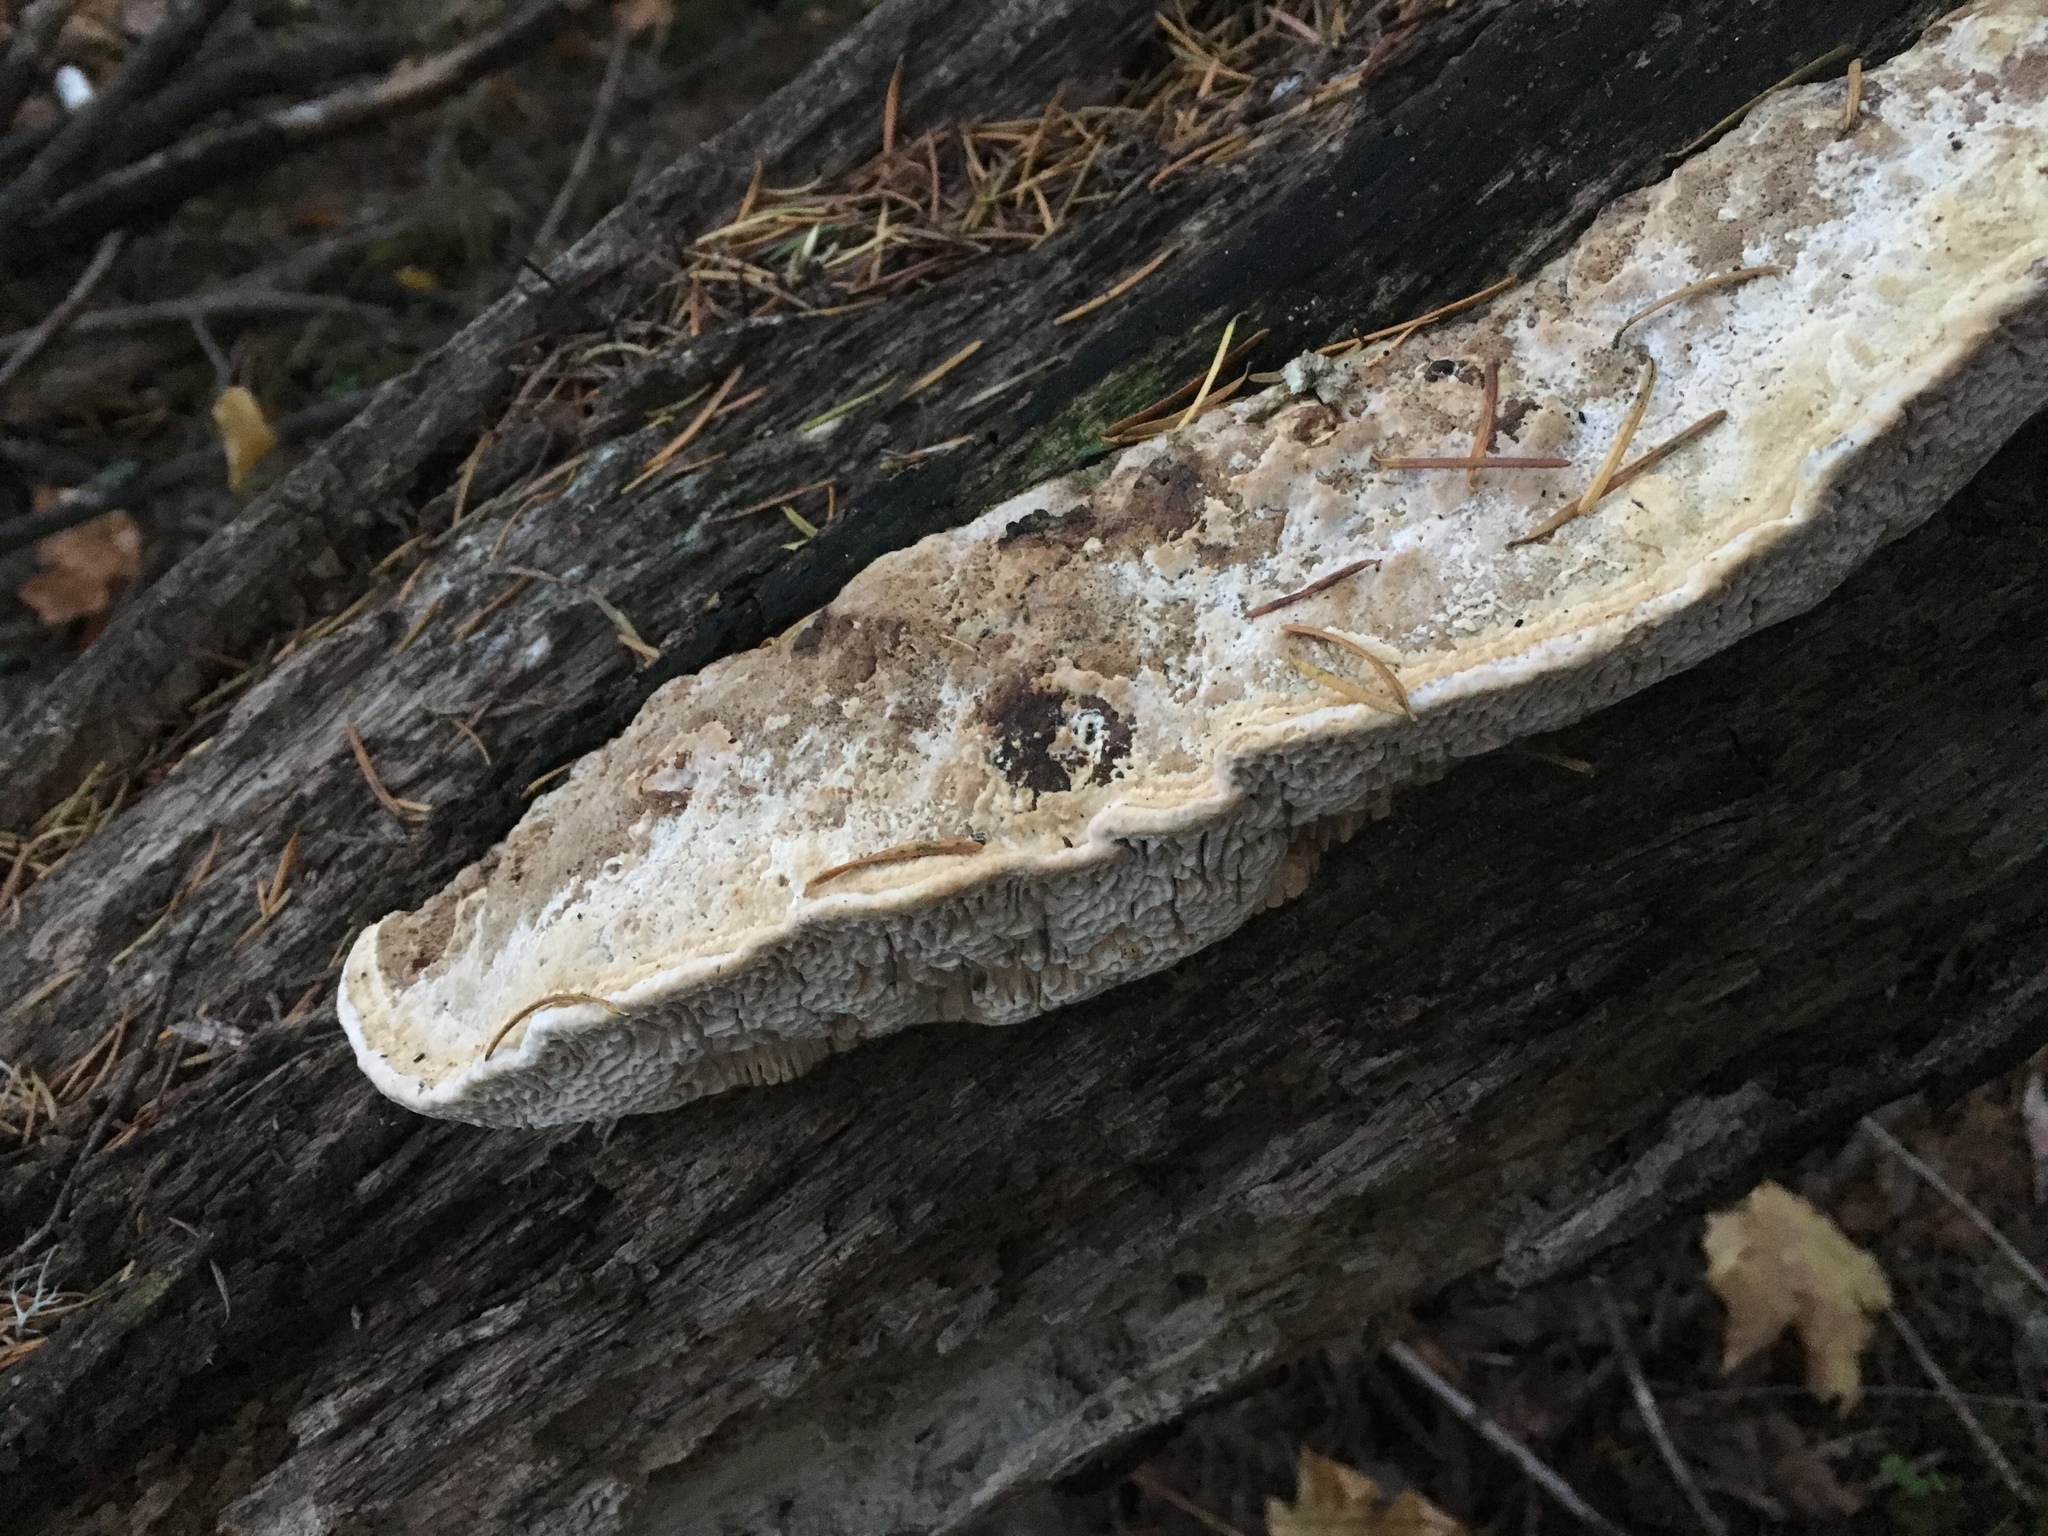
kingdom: Fungi
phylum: Basidiomycota
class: Agaricomycetes
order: Polyporales
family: Fomitopsidaceae
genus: Fomitopsis
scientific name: Fomitopsis
